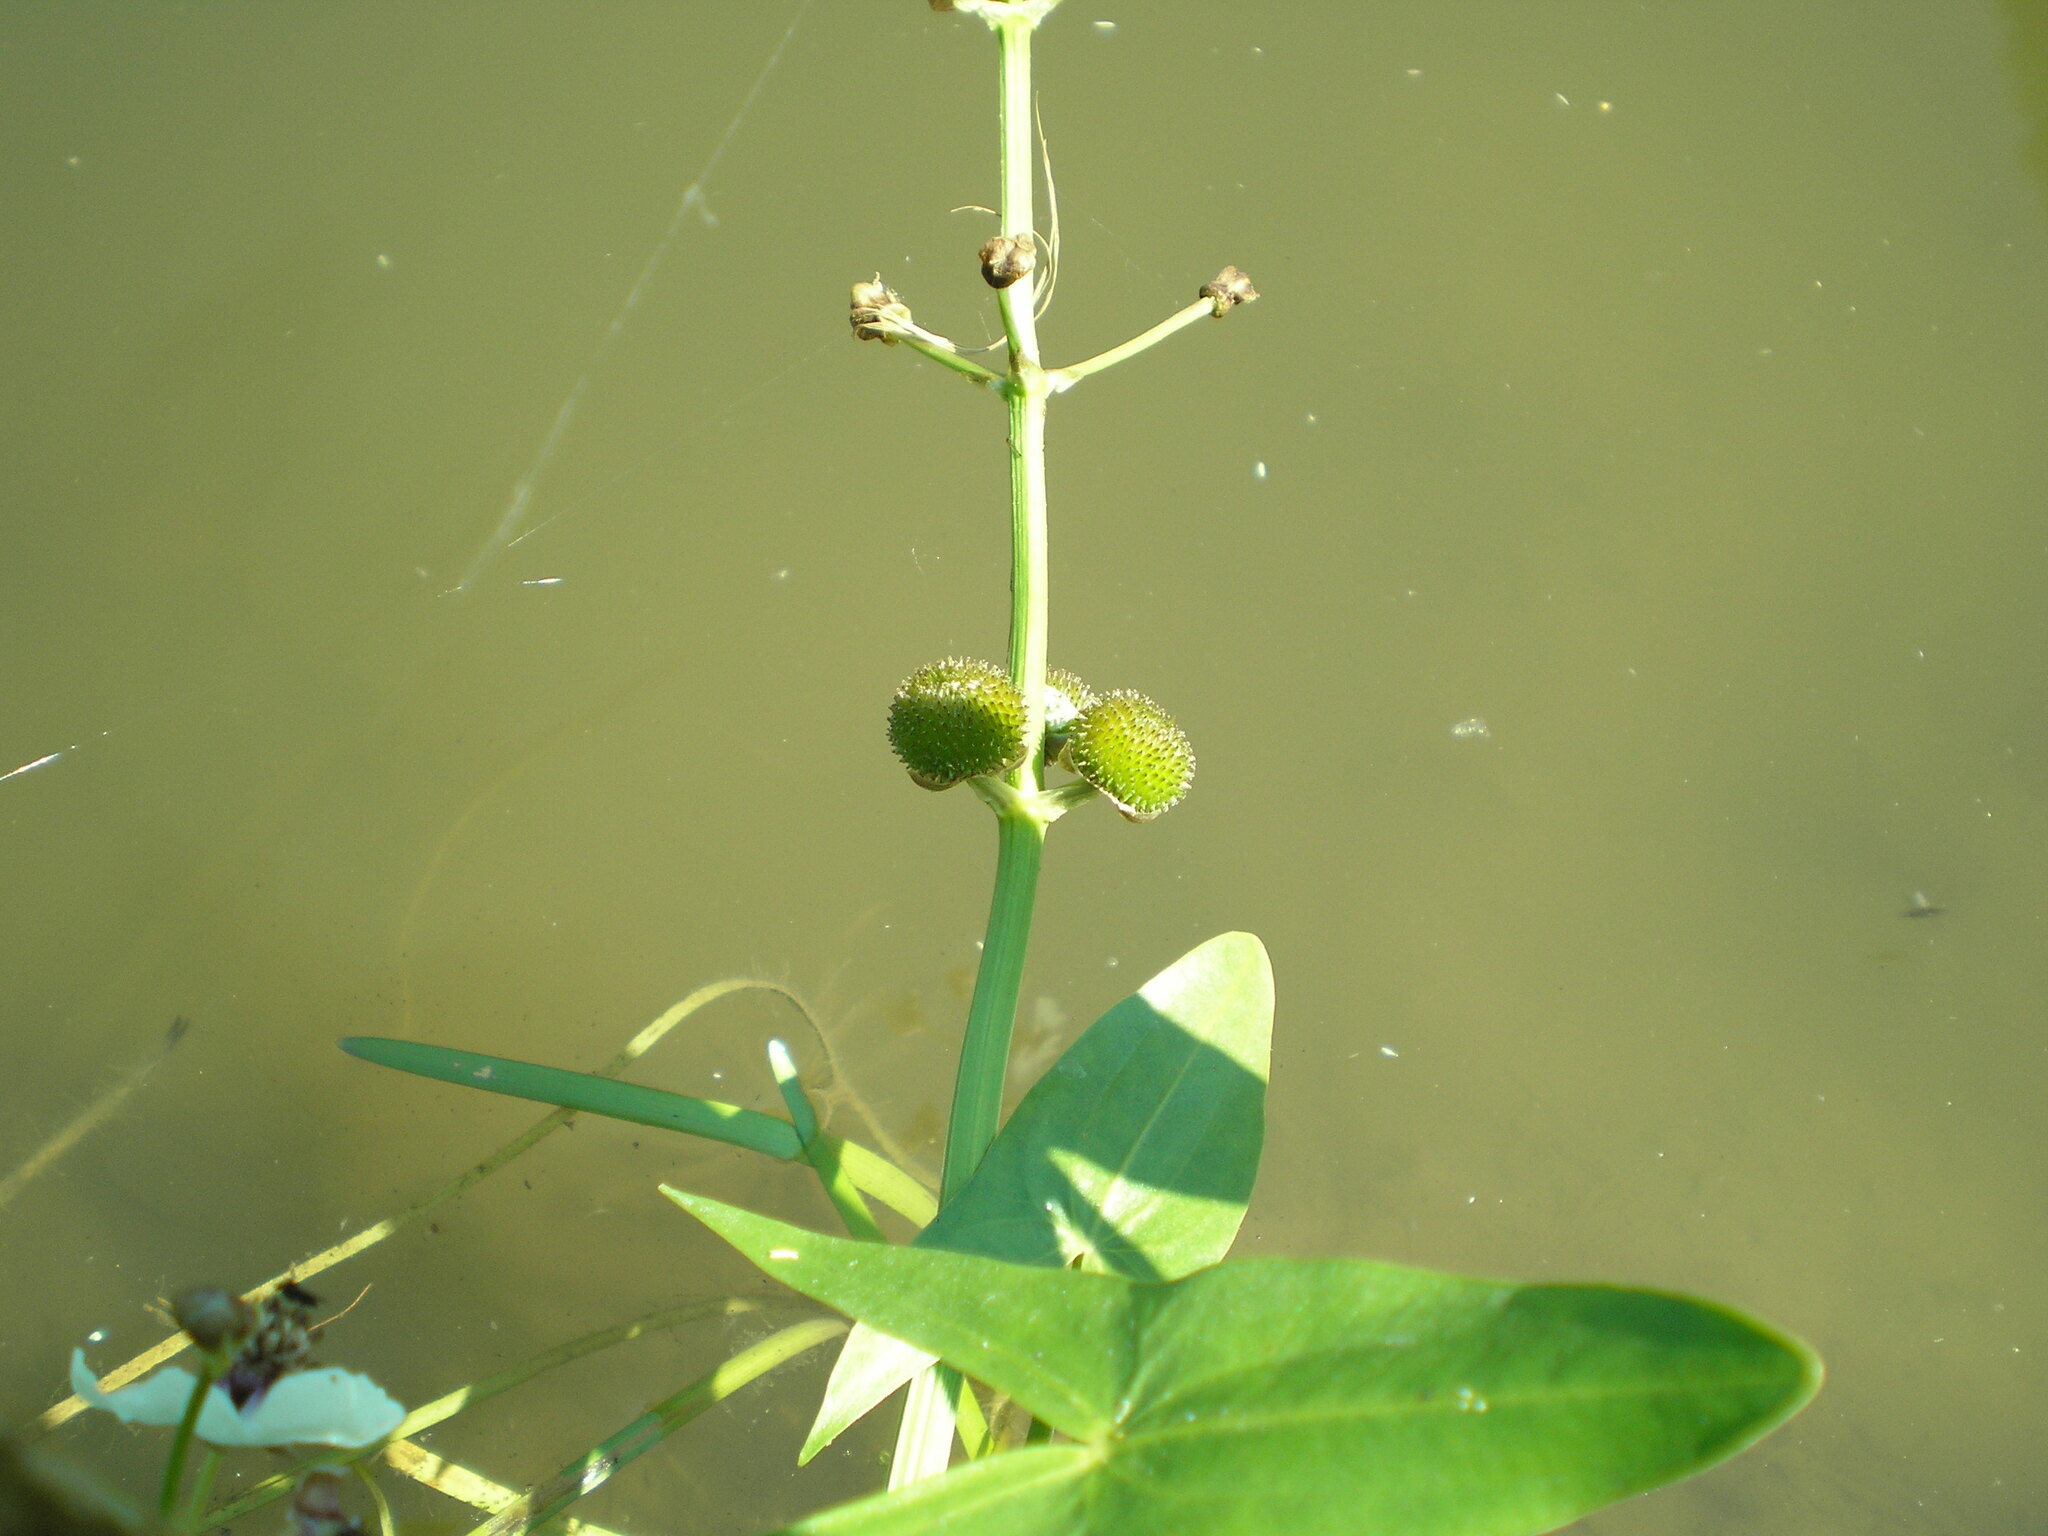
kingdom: Plantae
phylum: Tracheophyta
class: Liliopsida
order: Alismatales
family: Alismataceae
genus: Sagittaria
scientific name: Sagittaria sagittifolia
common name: Arrowhead
